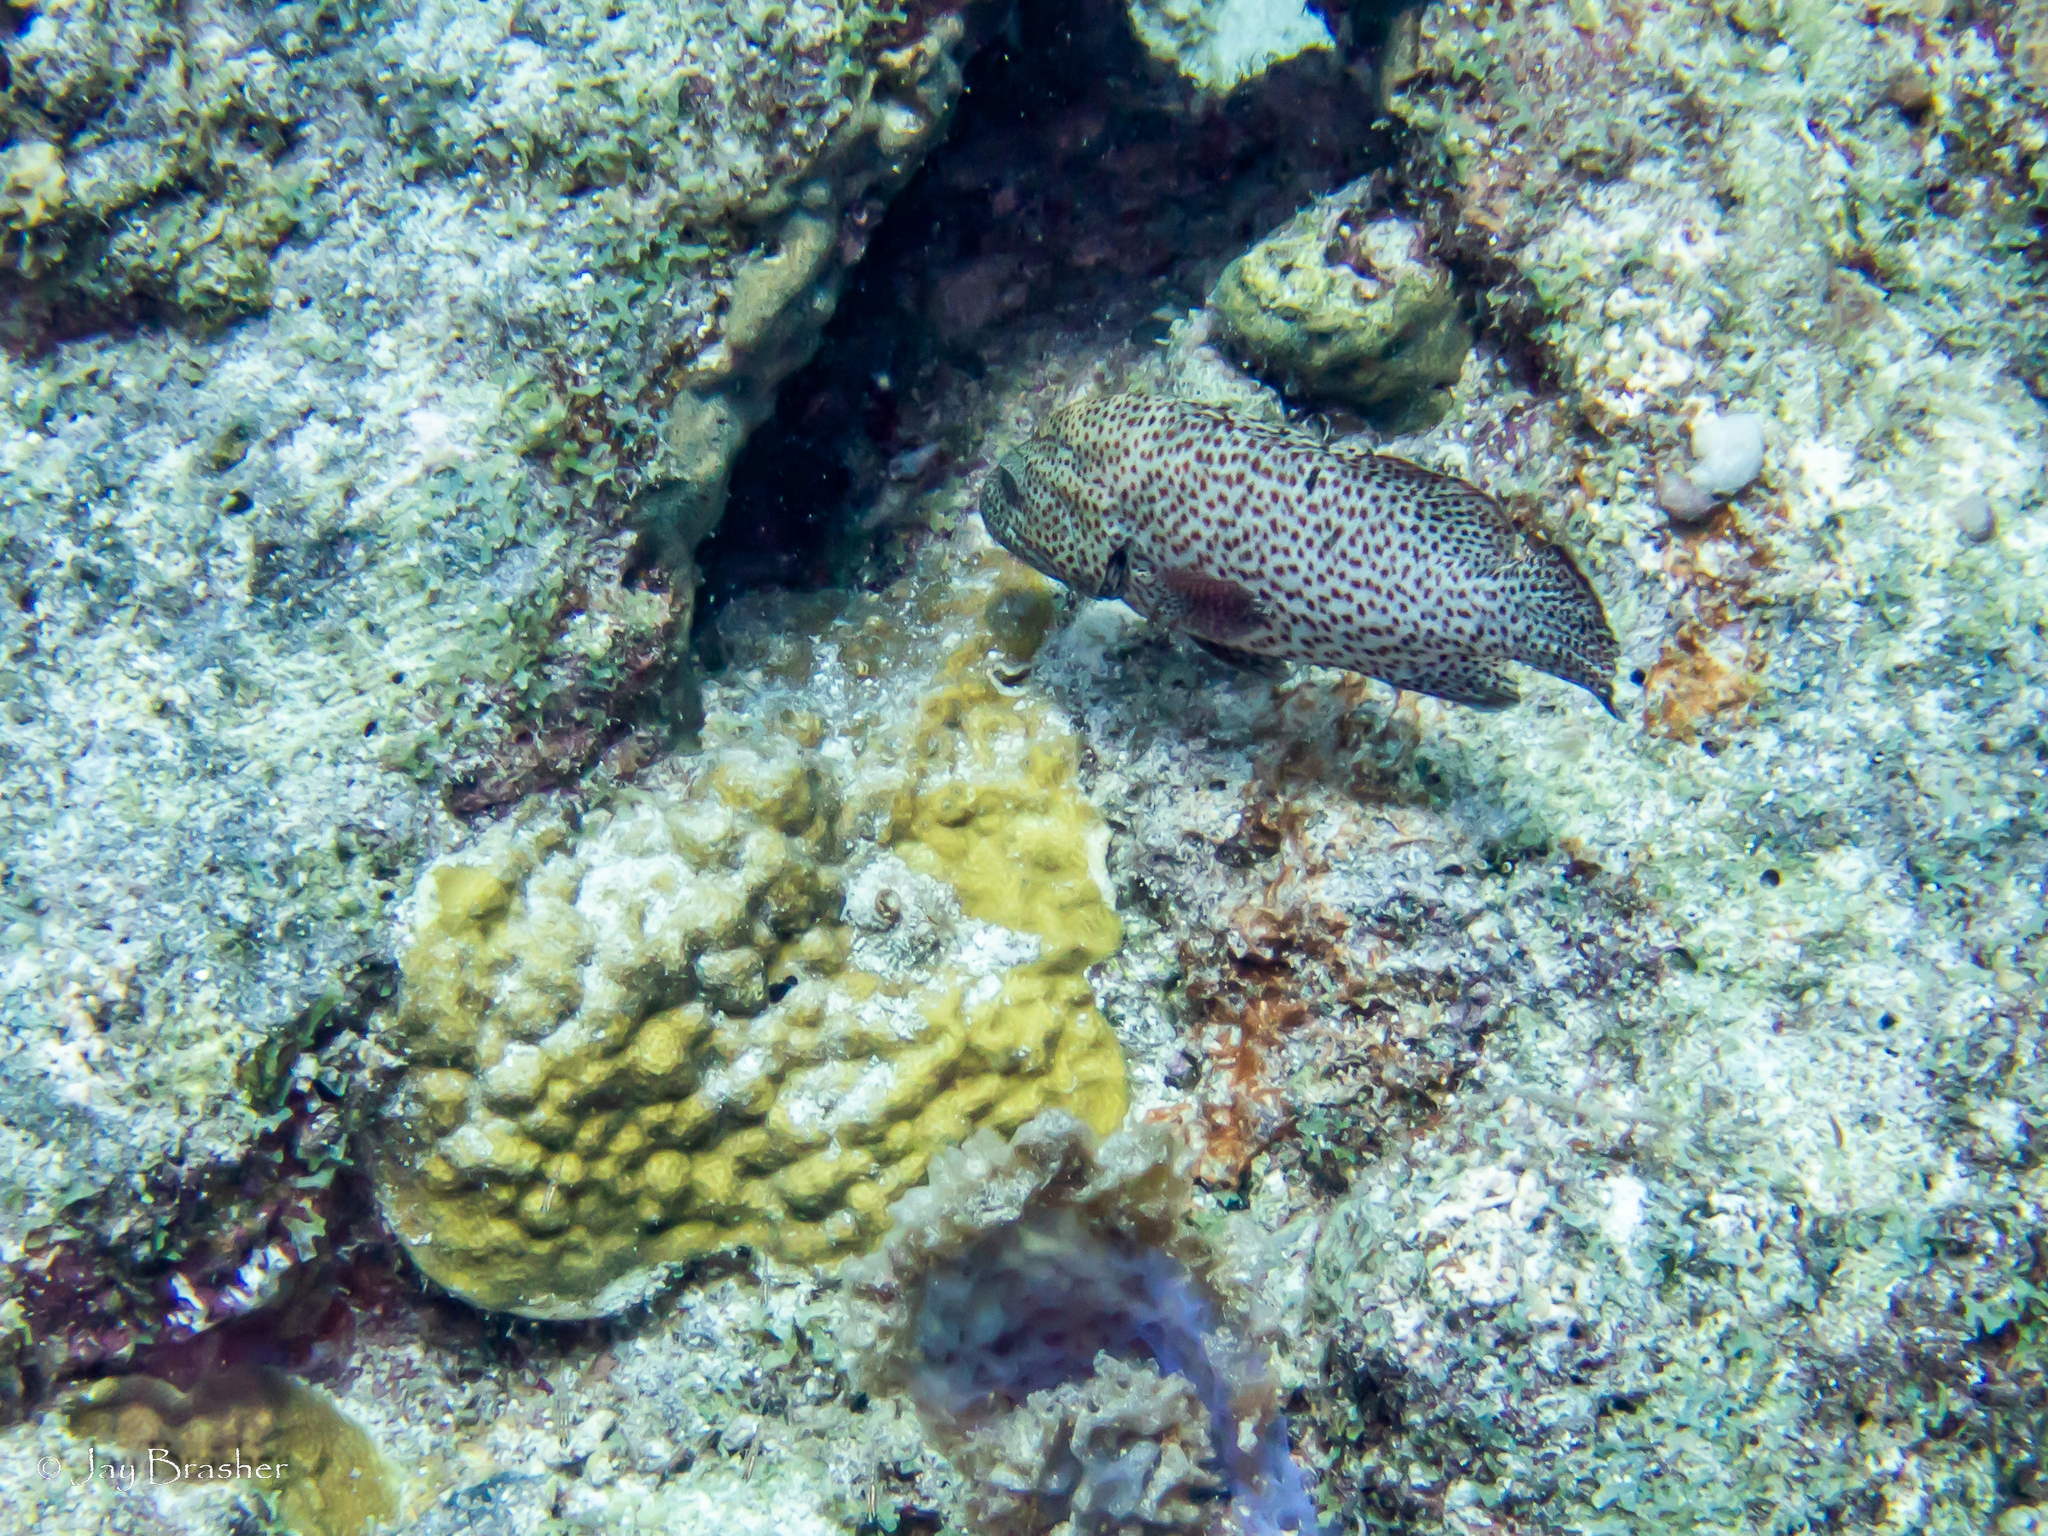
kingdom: Animalia
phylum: Chordata
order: Perciformes
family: Serranidae
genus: Cephalopholis
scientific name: Cephalopholis cruentata
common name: Graysby
